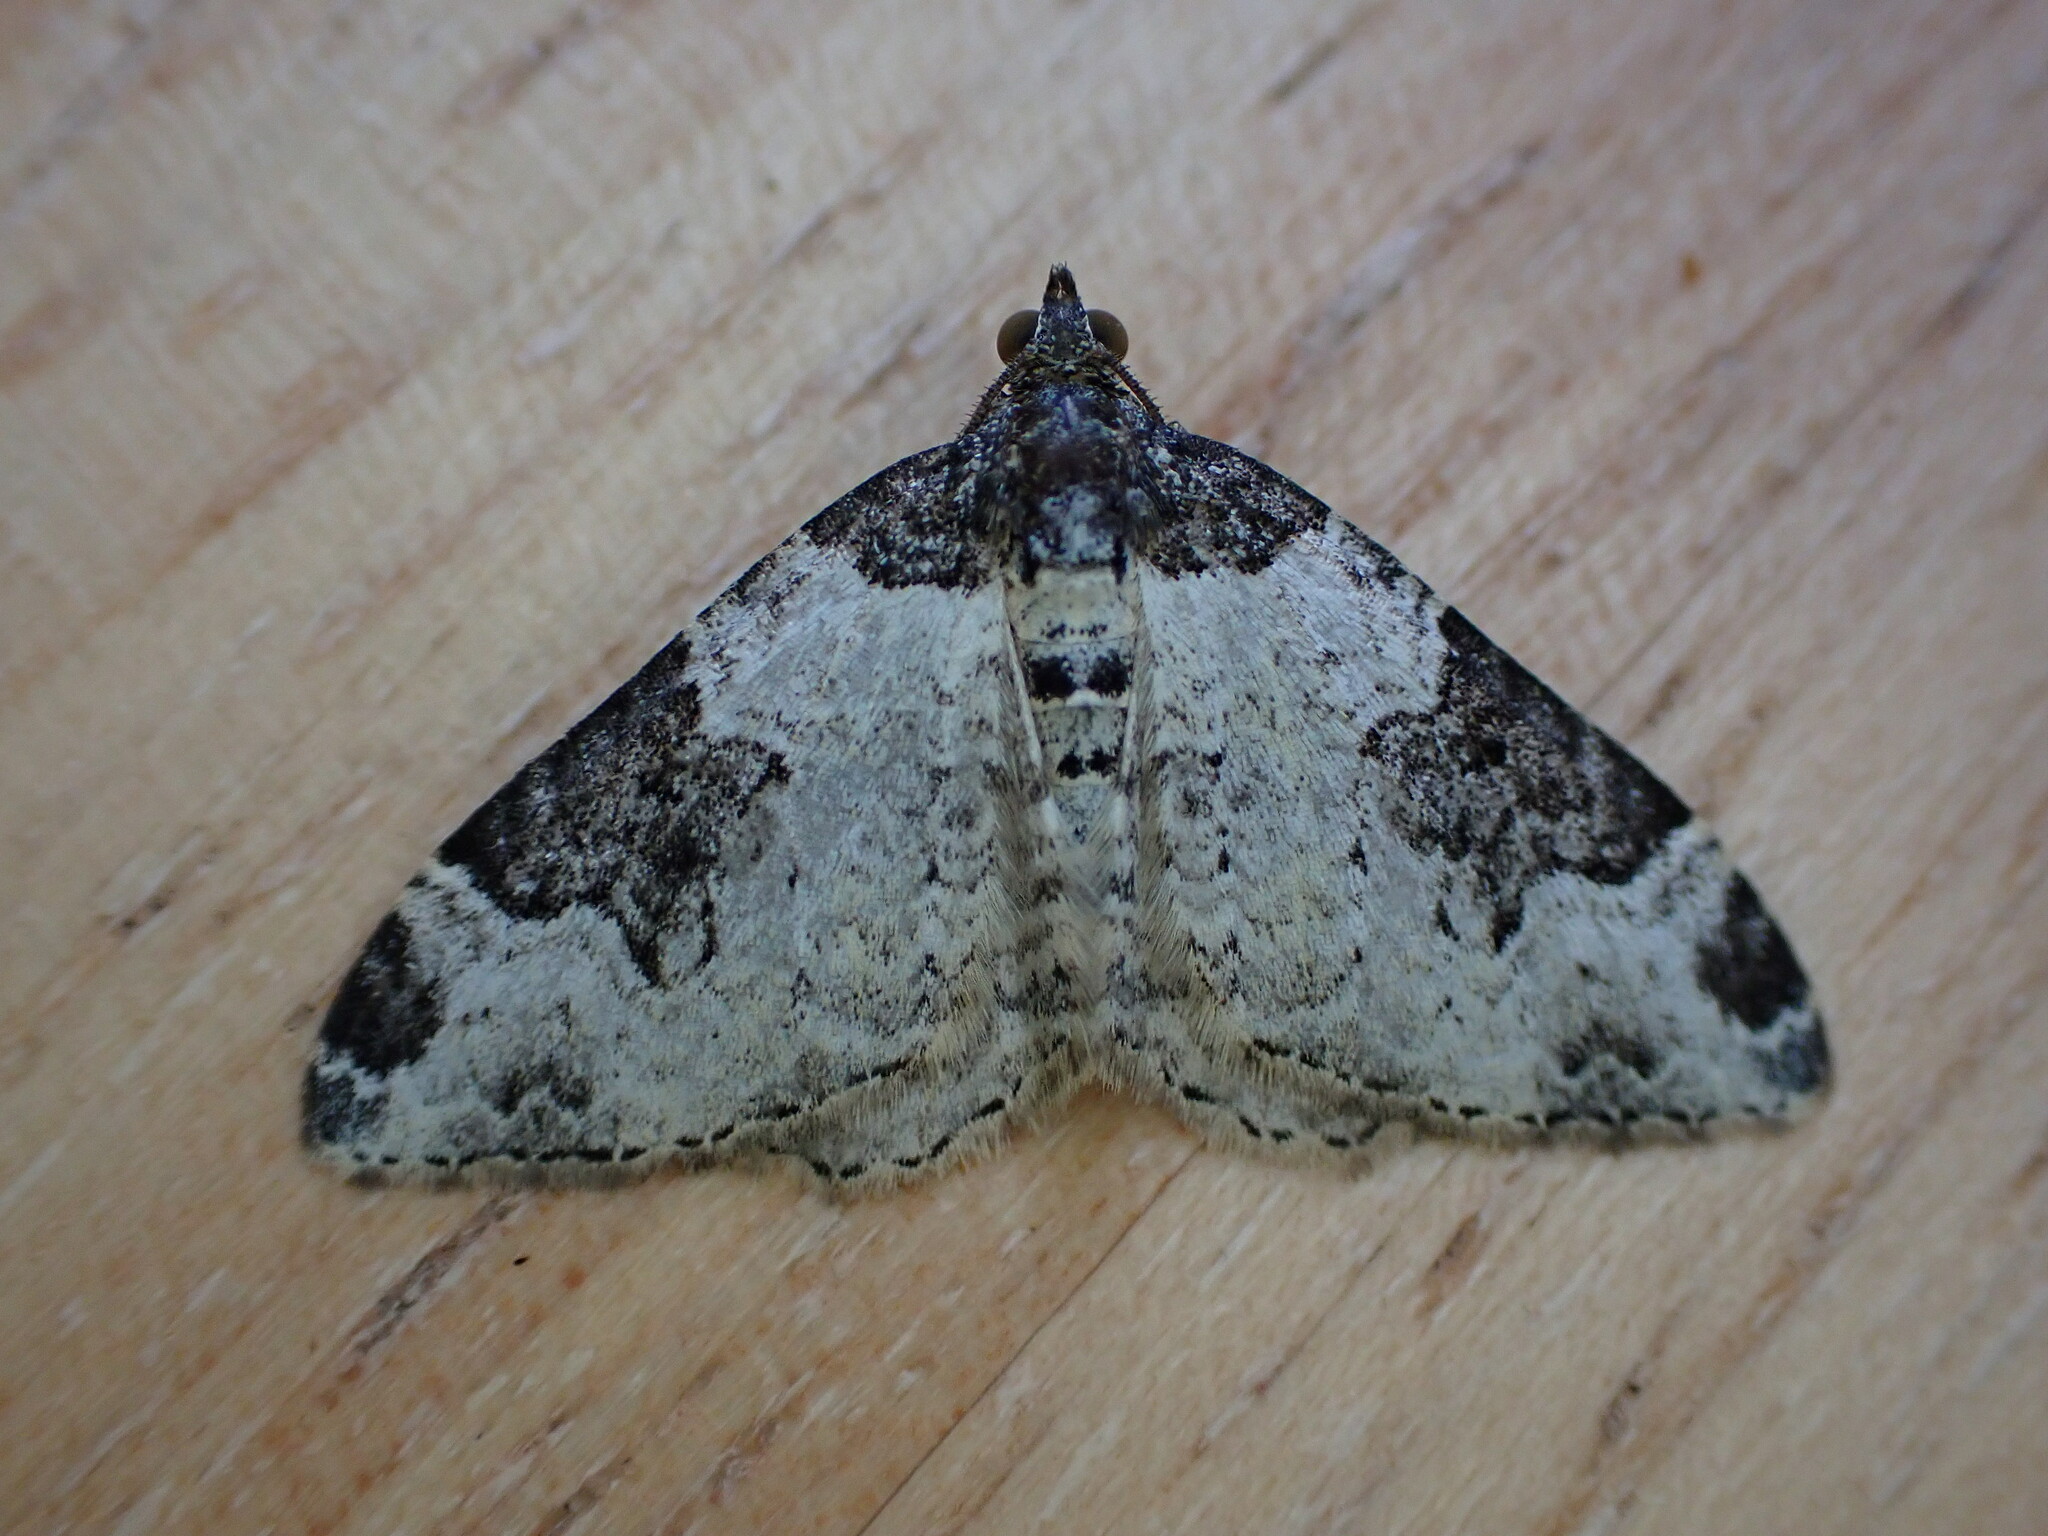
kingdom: Animalia
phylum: Arthropoda
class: Insecta
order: Lepidoptera
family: Geometridae
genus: Xanthorhoe
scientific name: Xanthorhoe fluctuata
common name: Garden carpet
